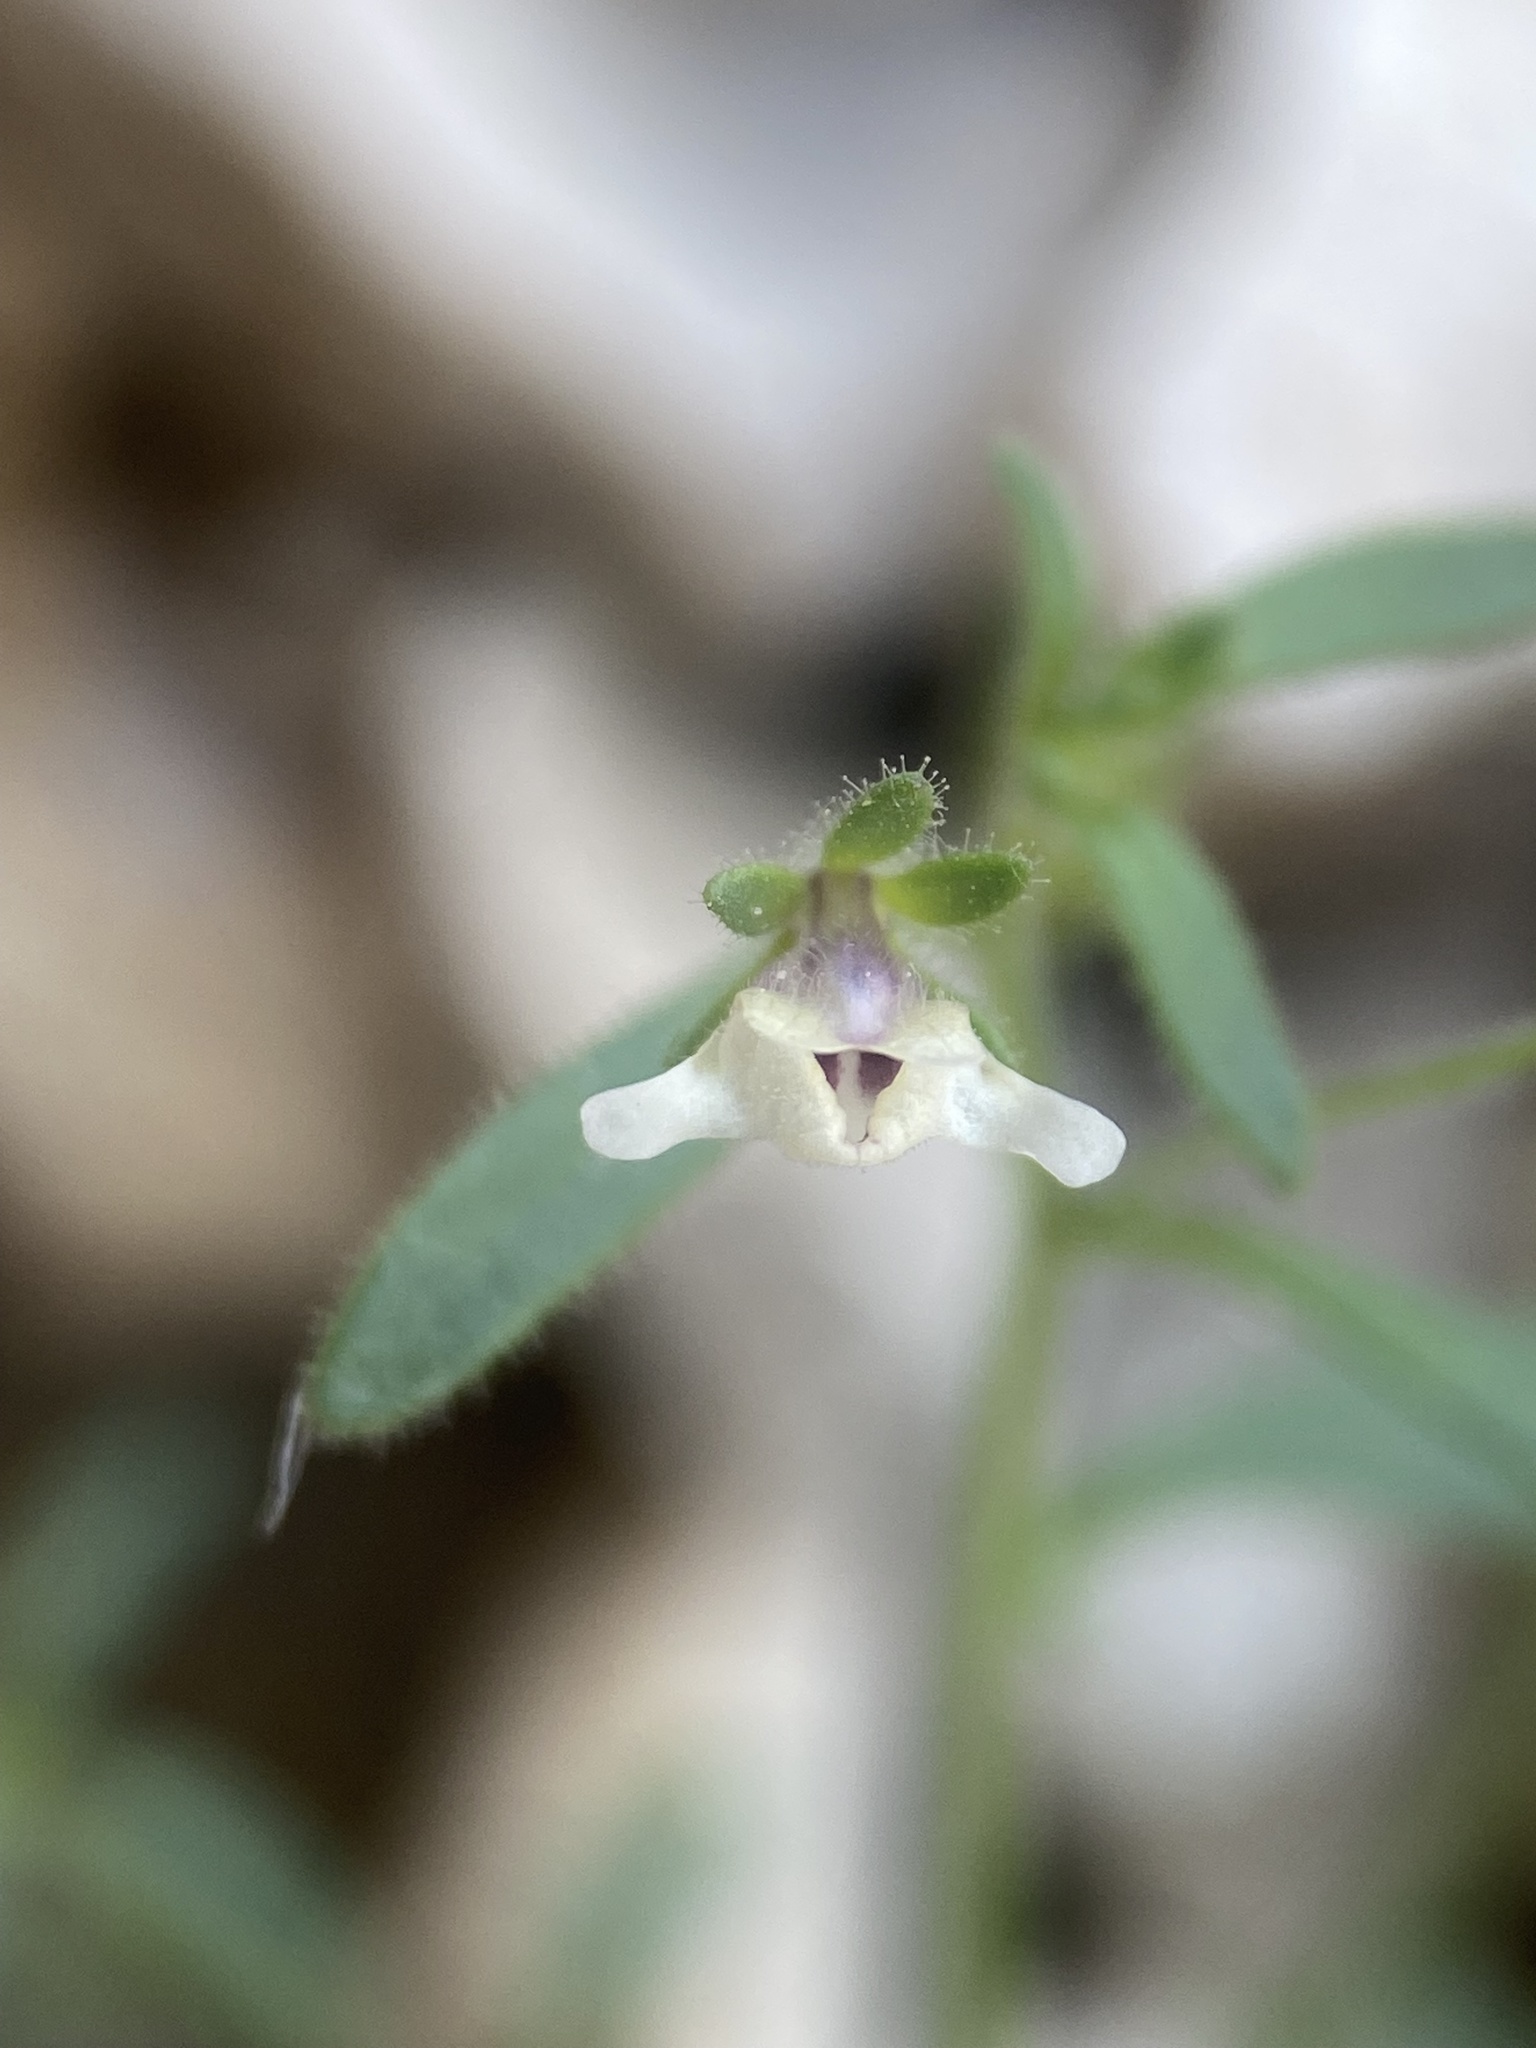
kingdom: Plantae
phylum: Tracheophyta
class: Magnoliopsida
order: Lamiales
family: Plantaginaceae
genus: Chaenorhinum
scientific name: Chaenorhinum minus
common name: Dwarf snapdragon
